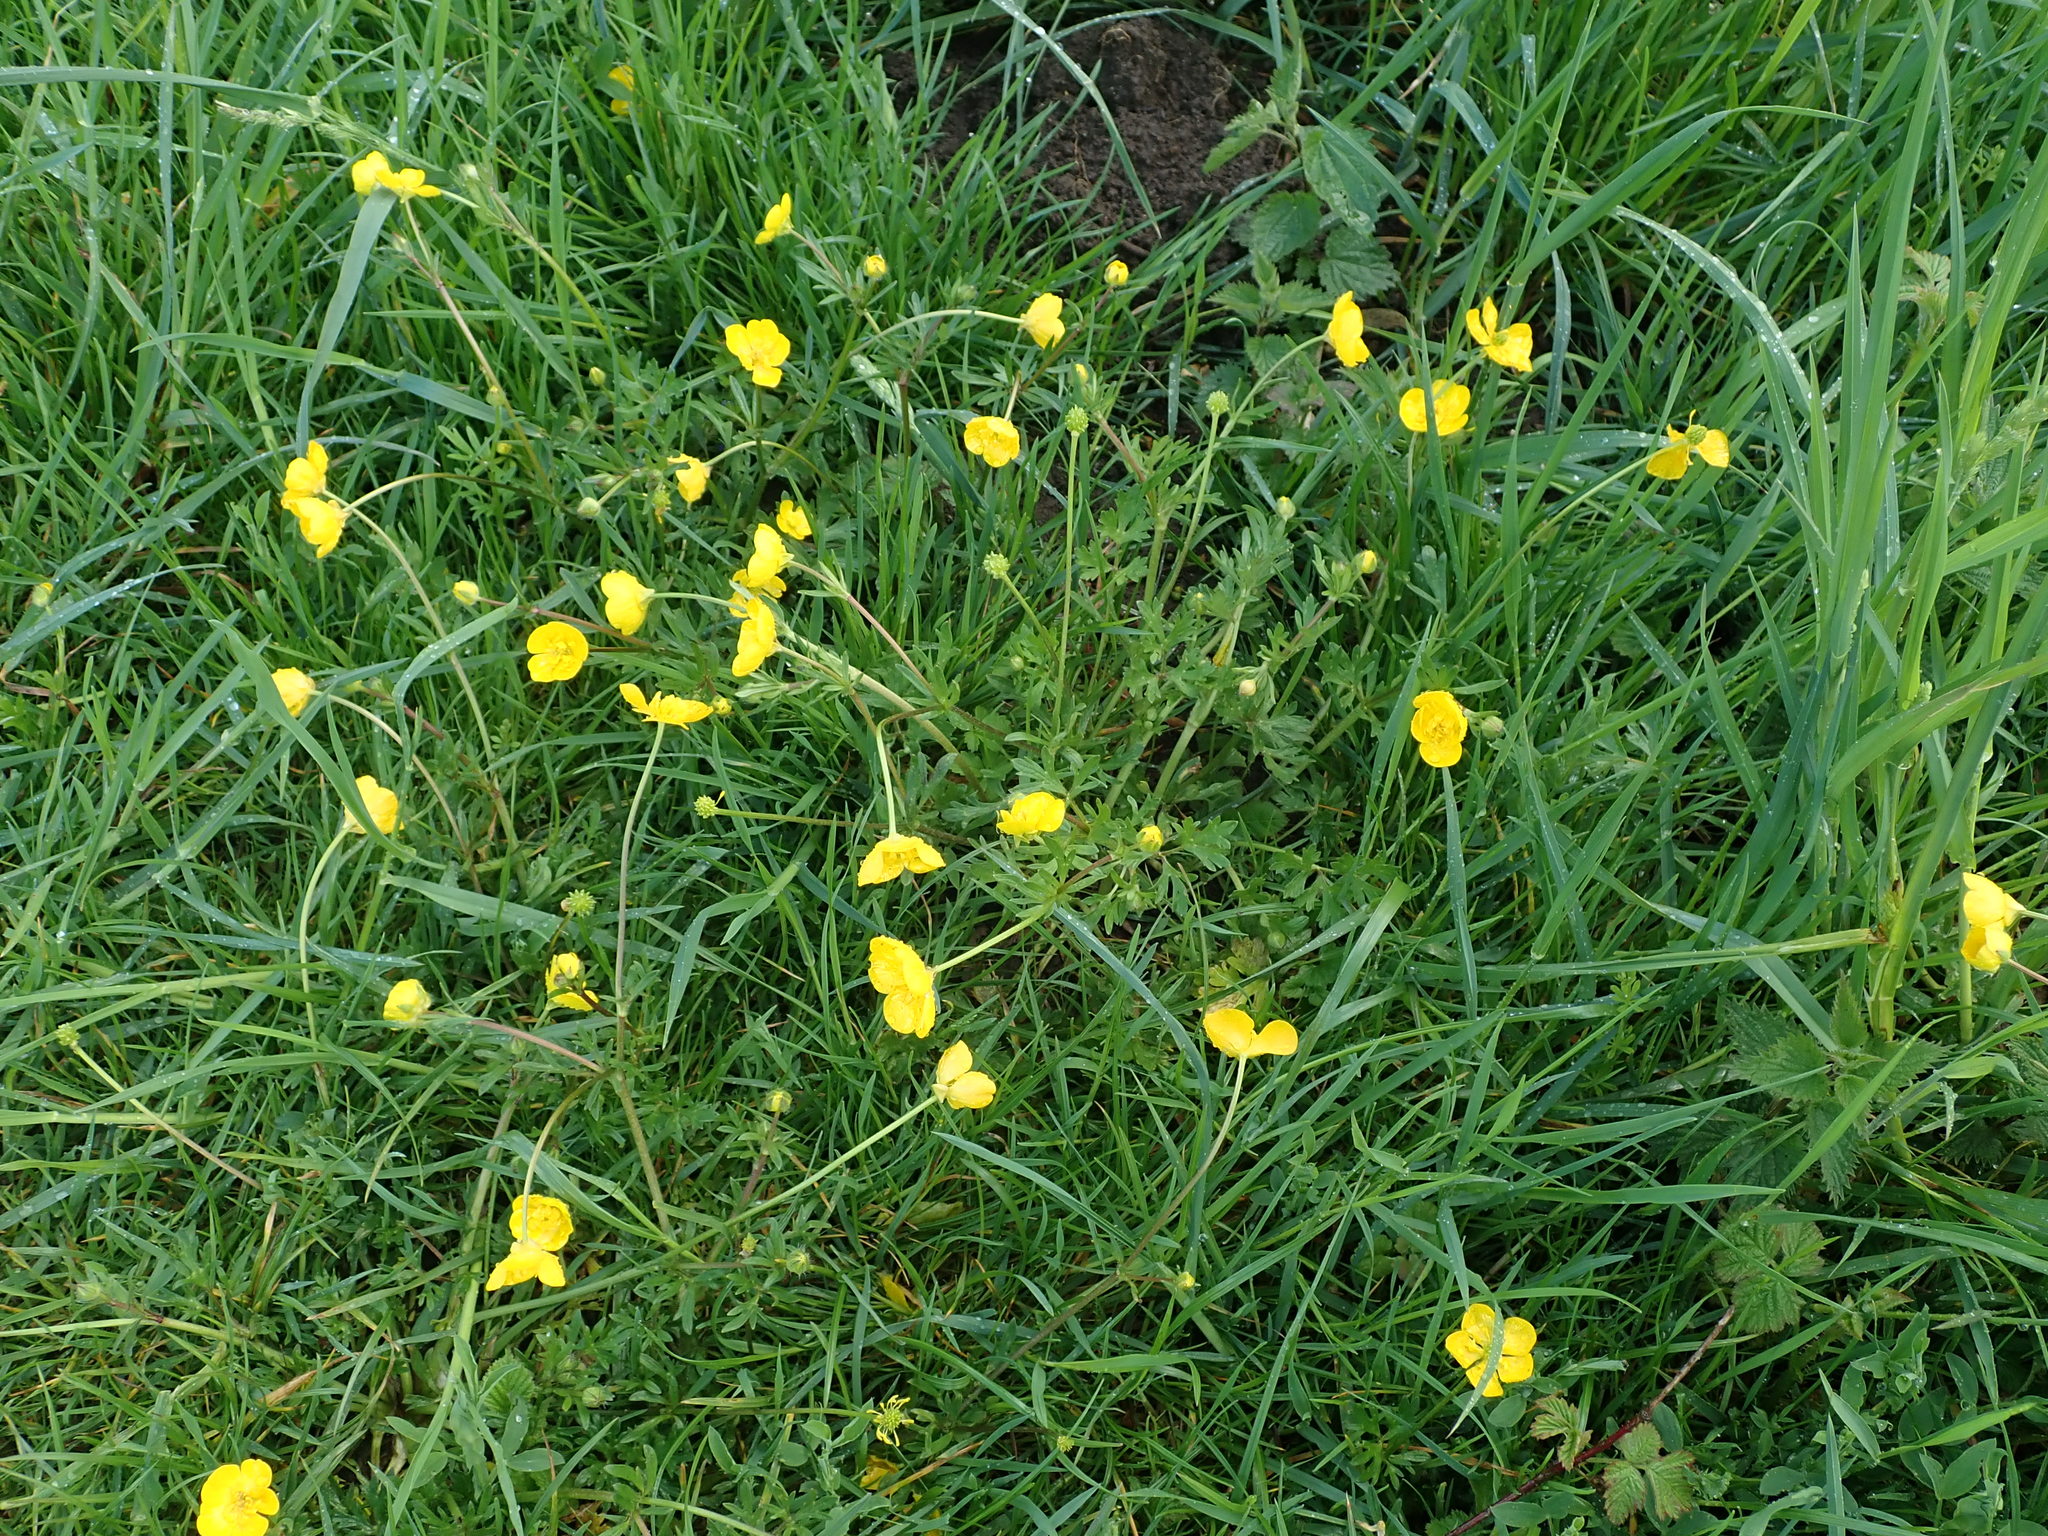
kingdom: Plantae
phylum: Tracheophyta
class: Magnoliopsida
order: Ranunculales
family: Ranunculaceae
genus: Ranunculus
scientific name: Ranunculus bulbosus
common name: Bulbous buttercup
